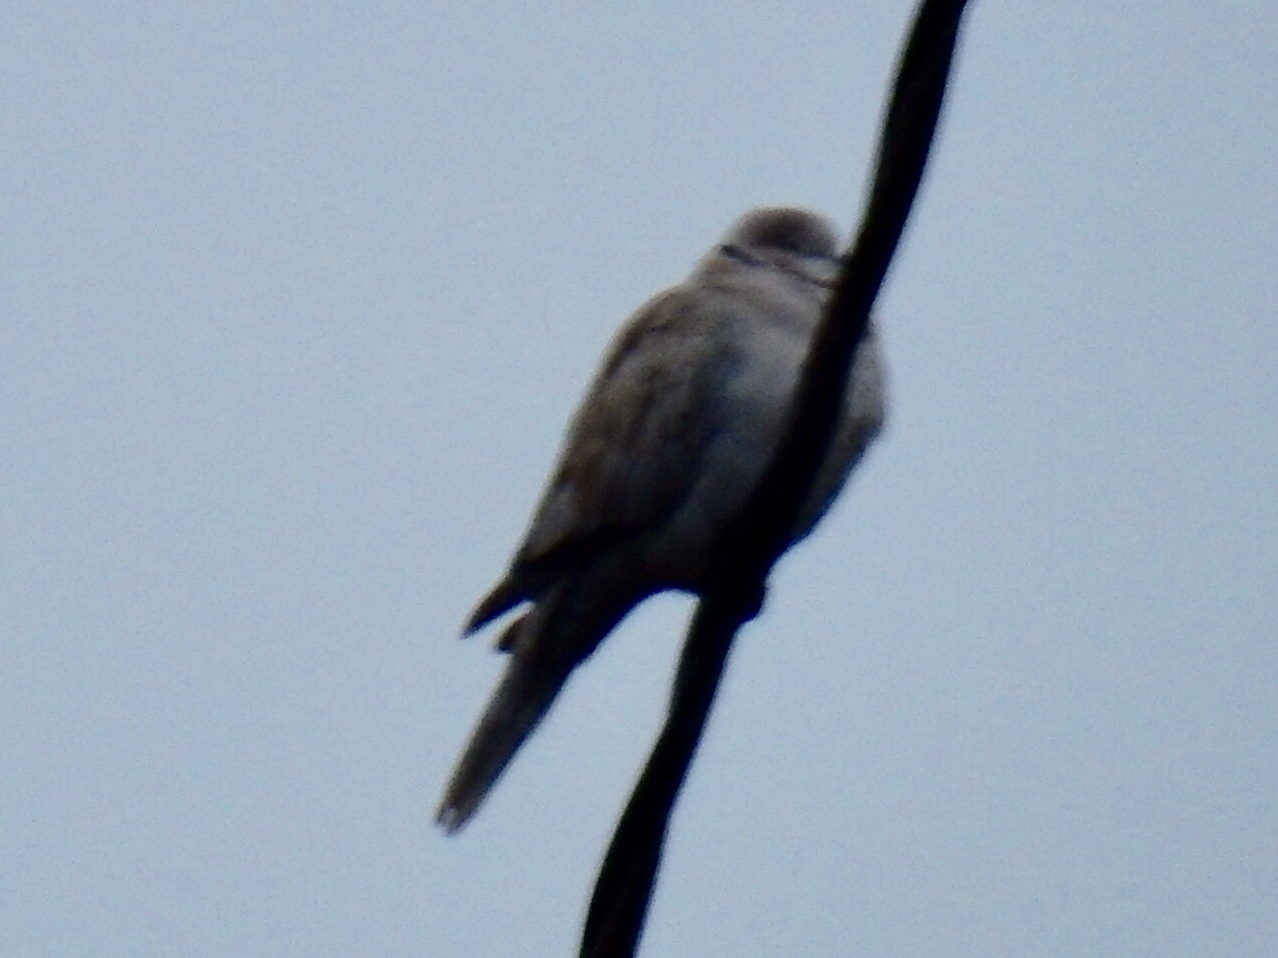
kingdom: Animalia
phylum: Chordata
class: Aves
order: Columbiformes
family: Columbidae
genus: Streptopelia
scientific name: Streptopelia decaocto
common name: Eurasian collared dove
